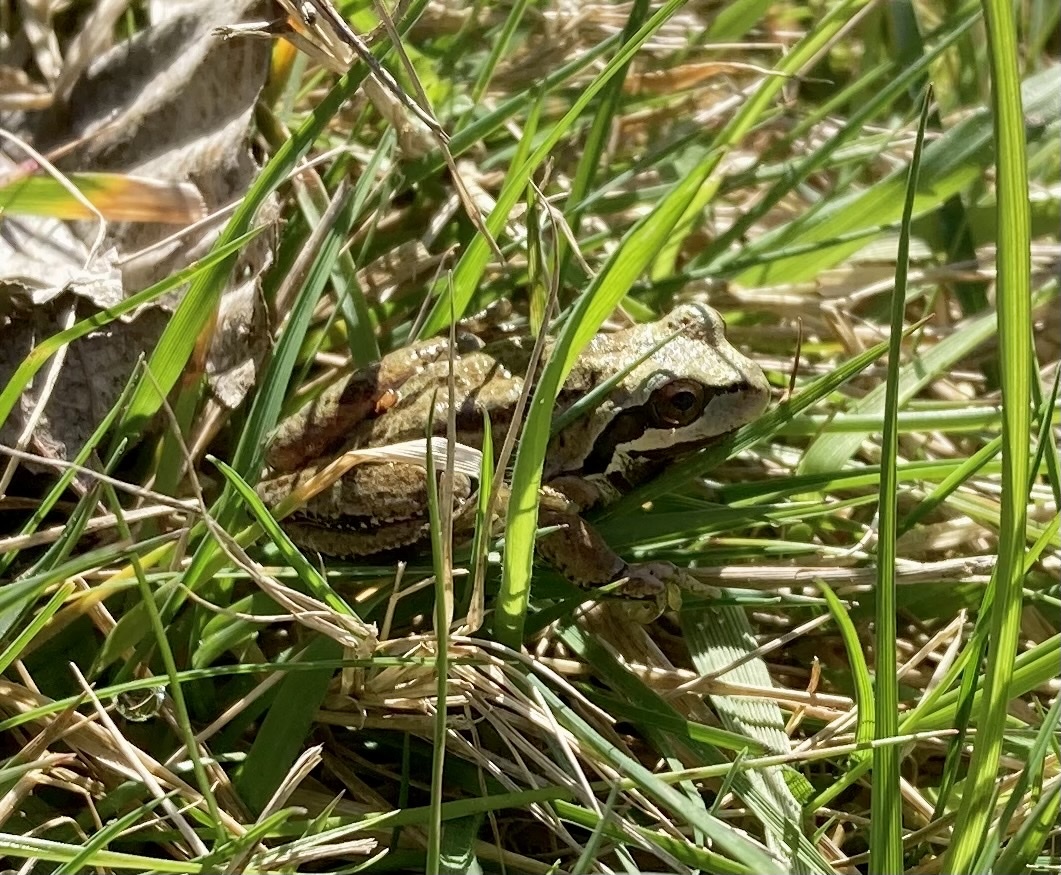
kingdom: Animalia
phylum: Chordata
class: Amphibia
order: Anura
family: Hylidae
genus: Pseudacris
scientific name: Pseudacris regilla
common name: Pacific chorus frog
